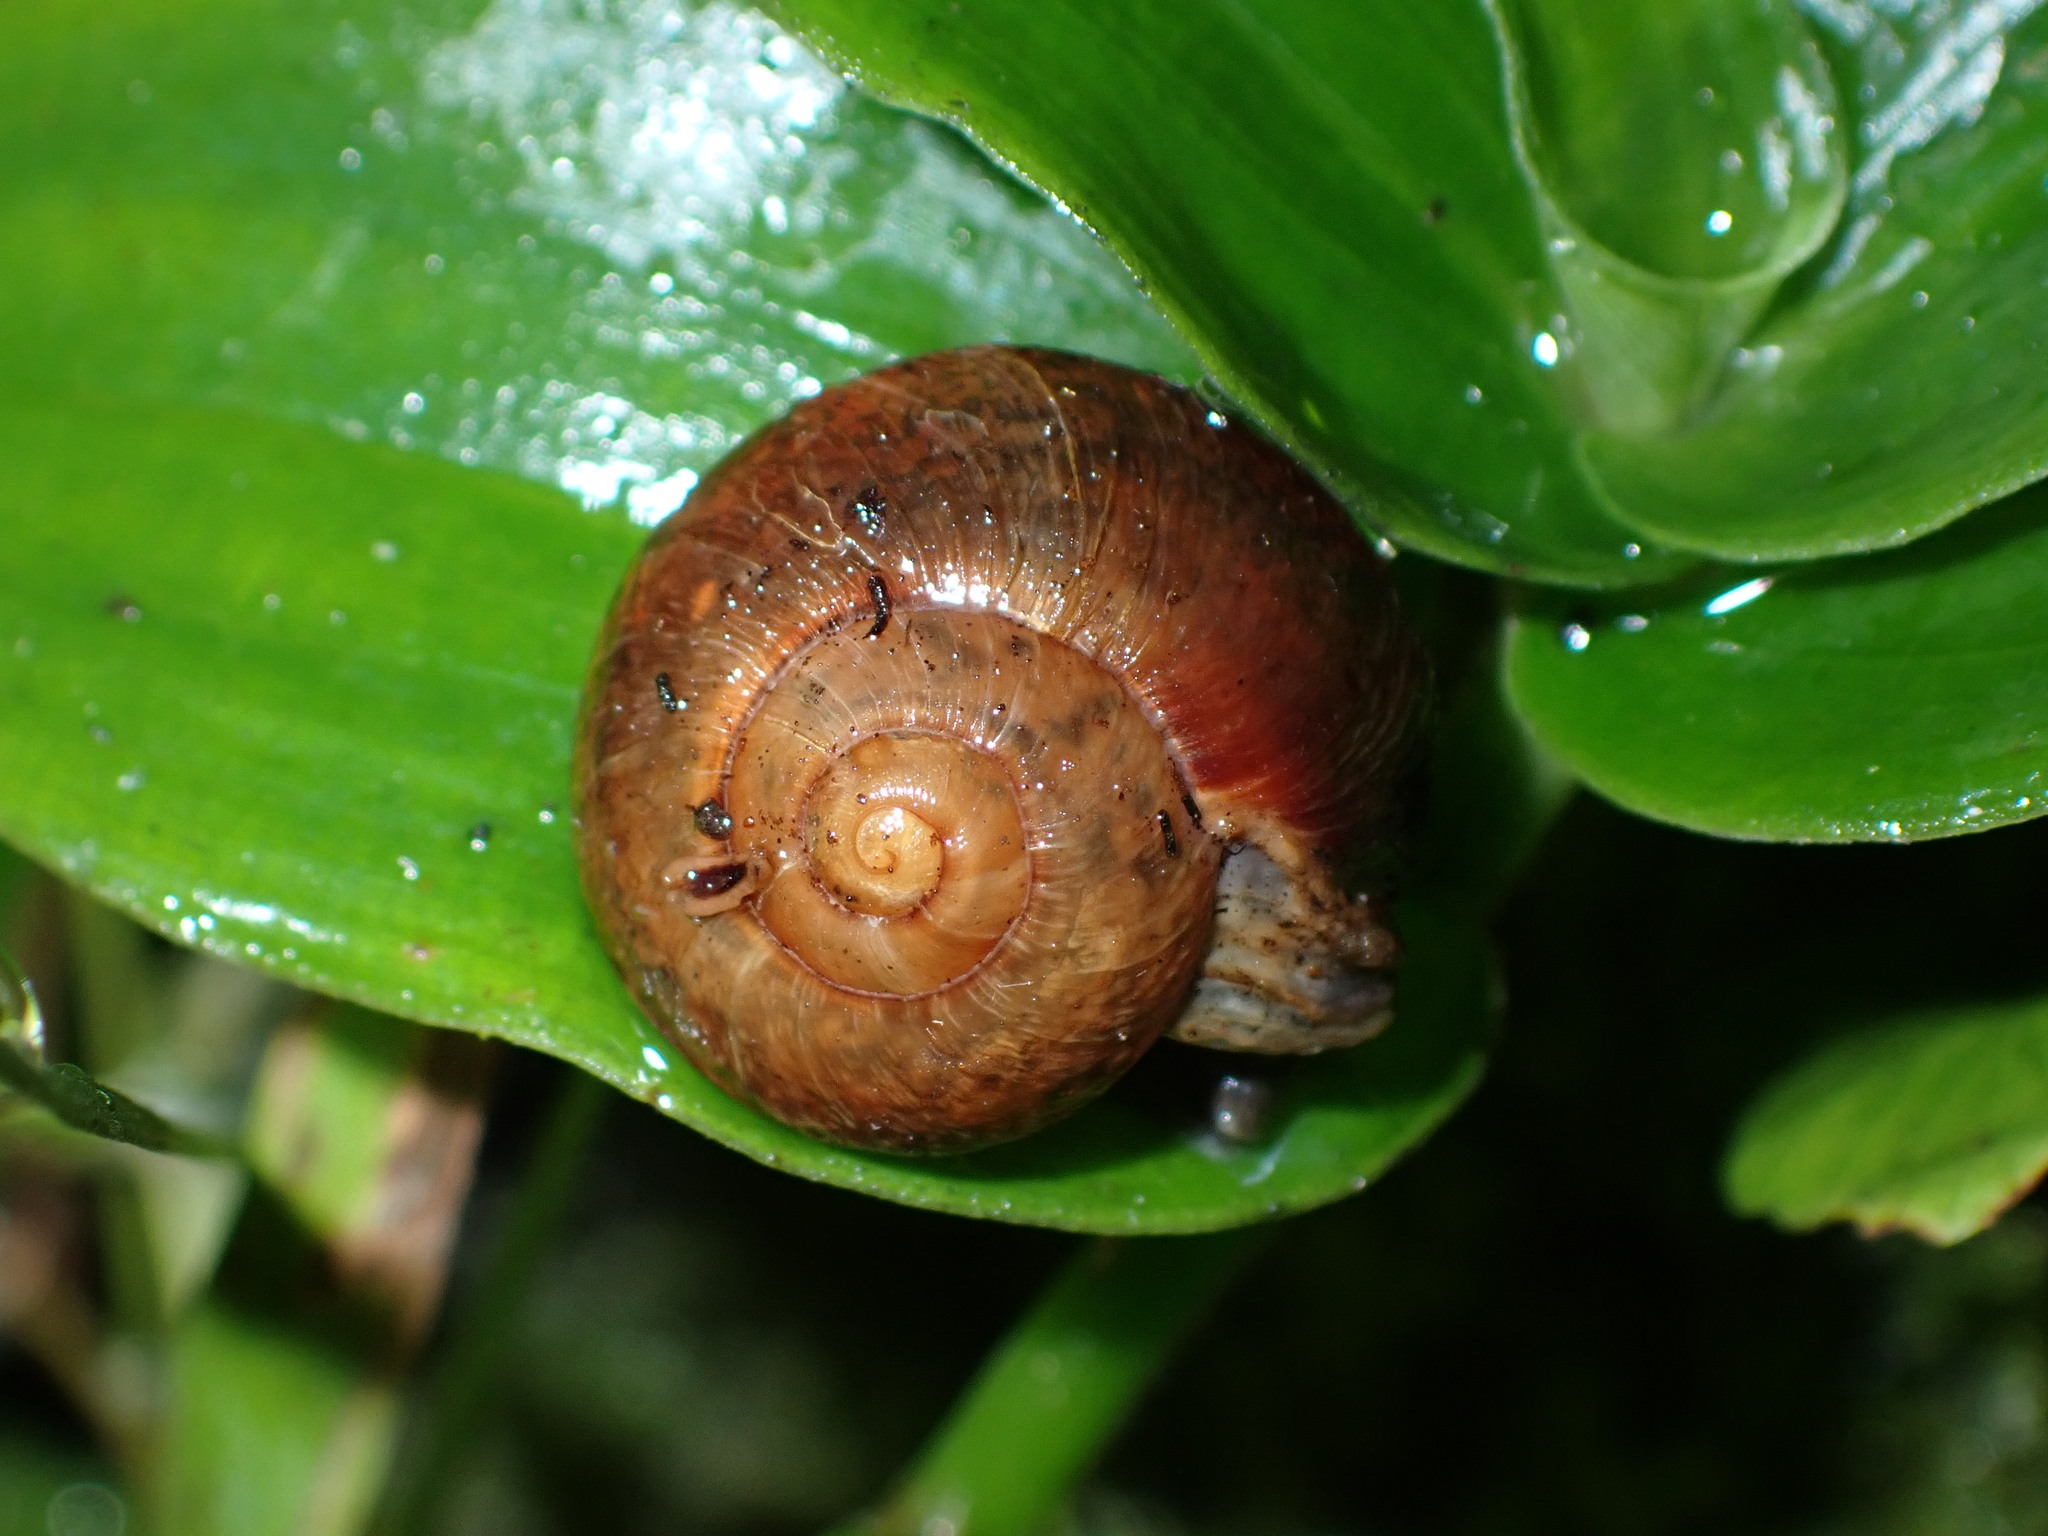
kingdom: Animalia
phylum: Mollusca
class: Gastropoda
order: Stylommatophora
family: Rhytididae
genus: Amborhytida
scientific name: Amborhytida dunniae
